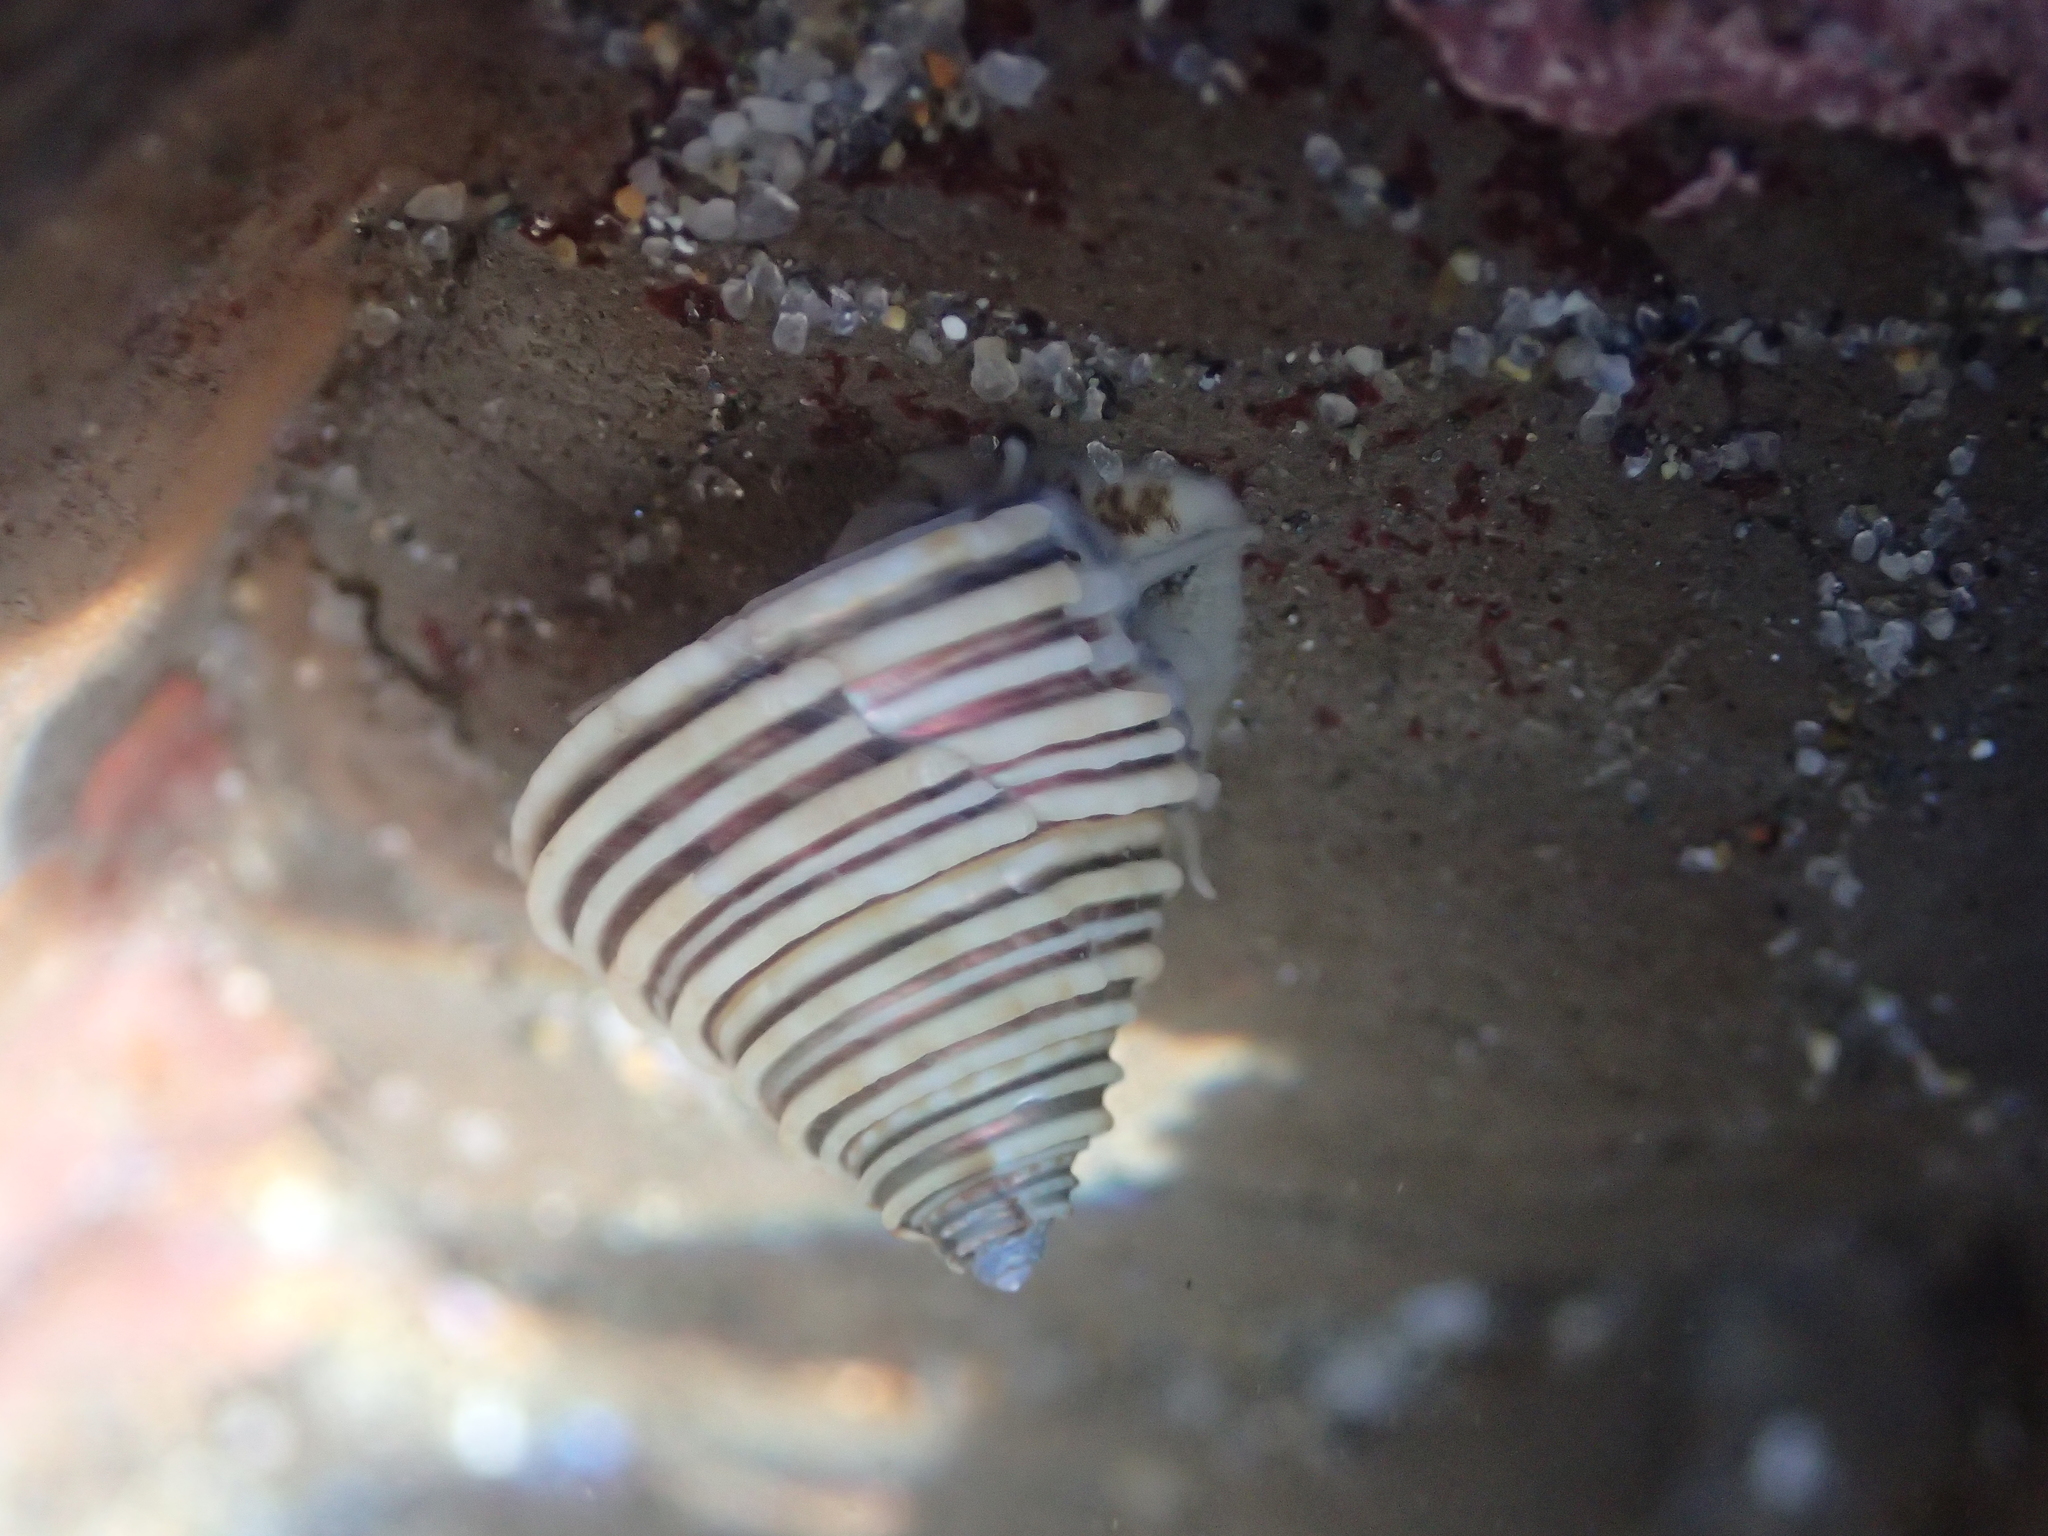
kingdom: Animalia
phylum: Mollusca
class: Gastropoda
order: Trochida
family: Calliostomatidae
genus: Calliostoma
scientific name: Calliostoma canaliculatum
